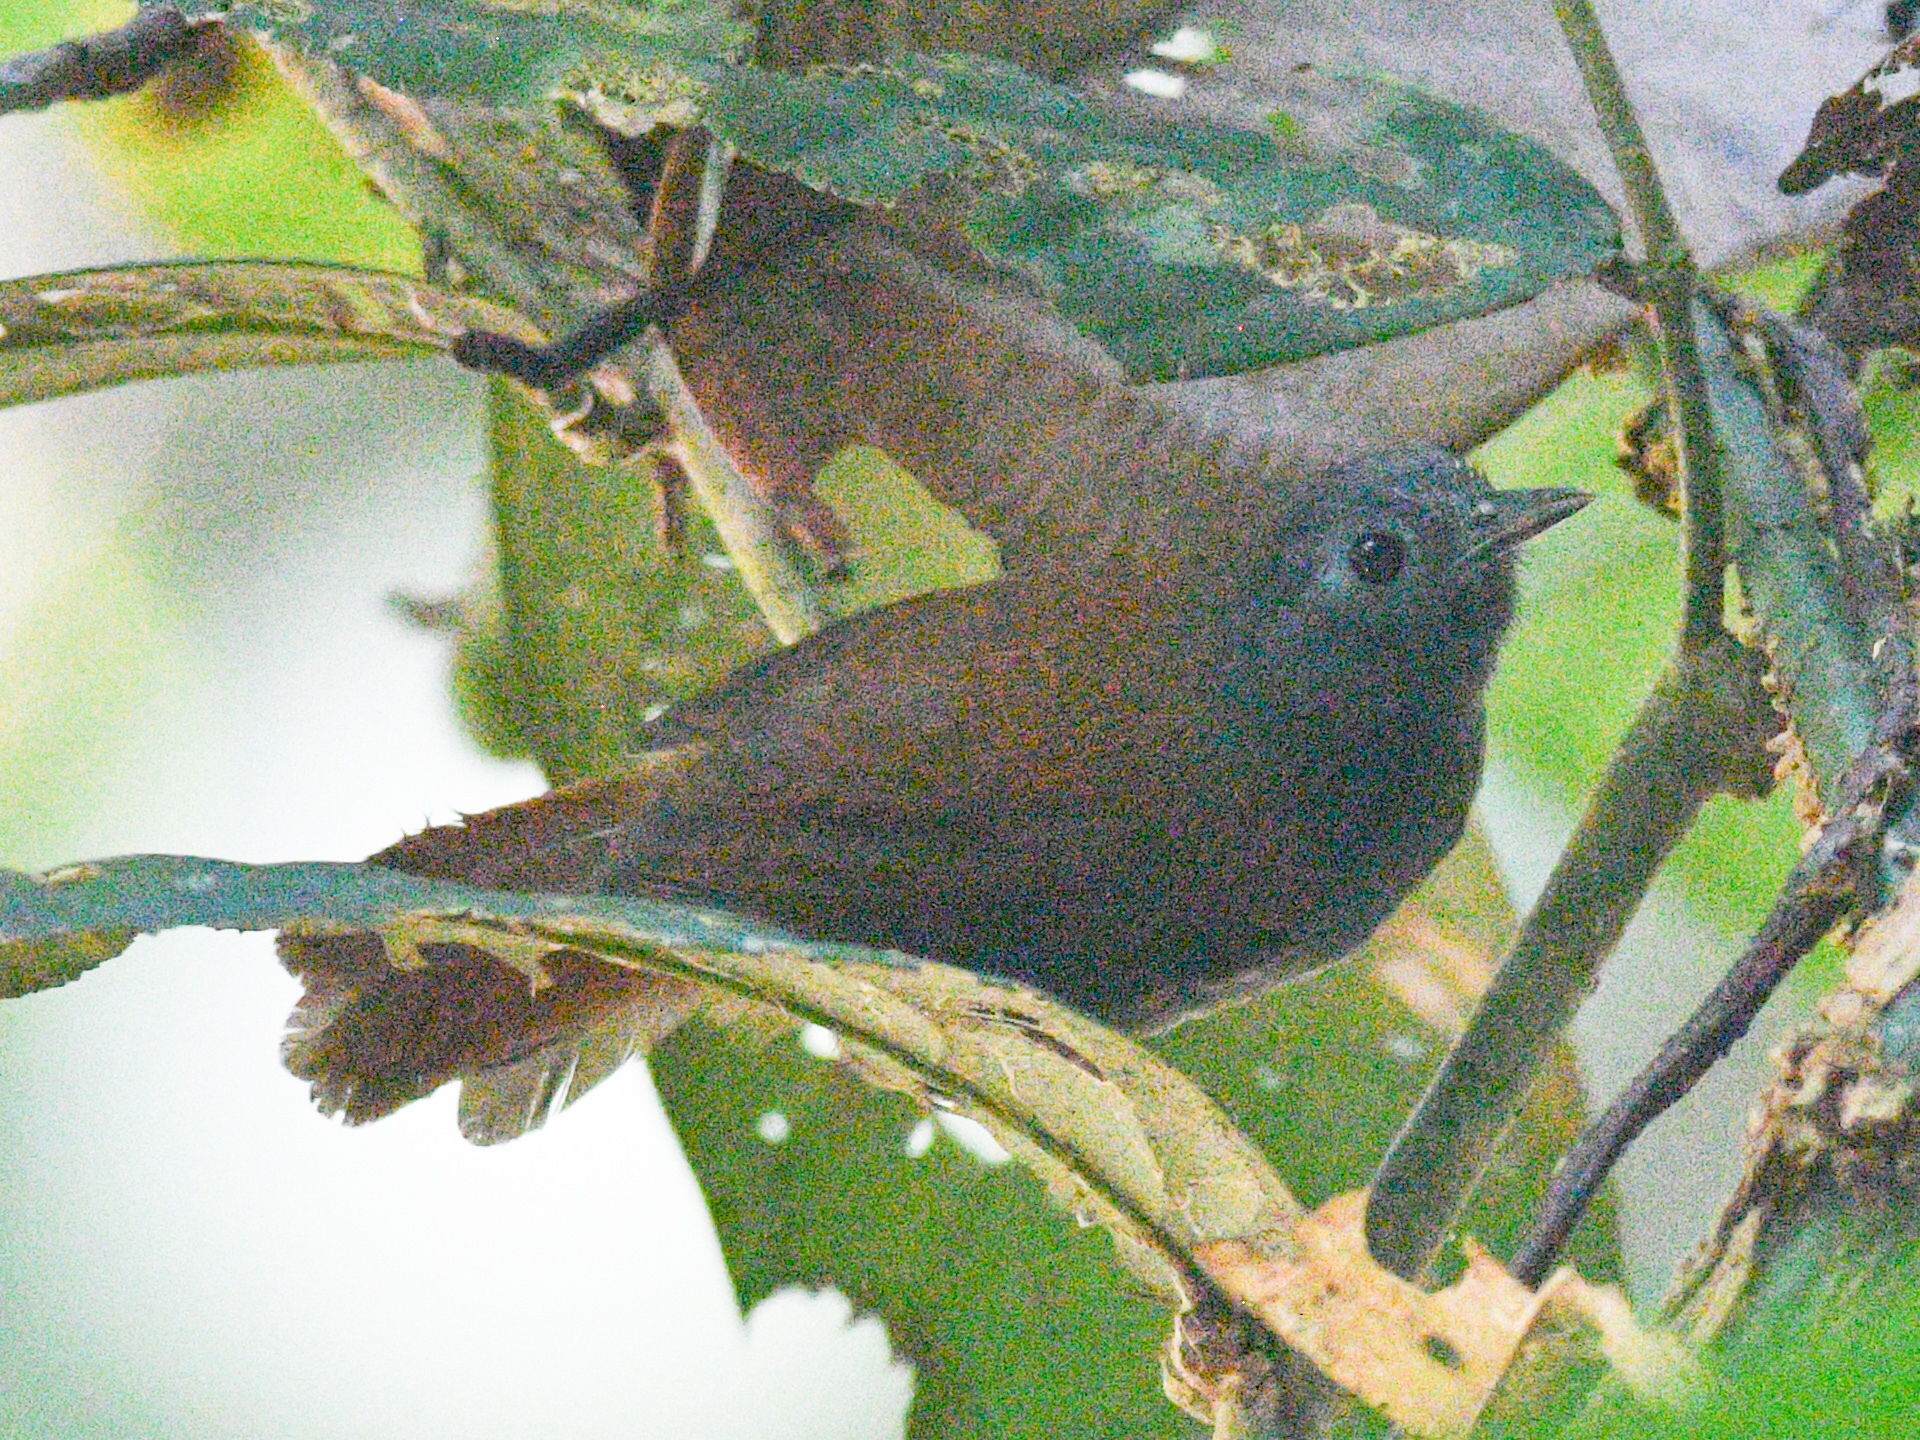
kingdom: Animalia
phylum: Chordata
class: Aves
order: Passeriformes
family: Timaliidae
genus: Stachyris
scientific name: Stachyris erythroptera
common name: Chestnut-winged babbler
